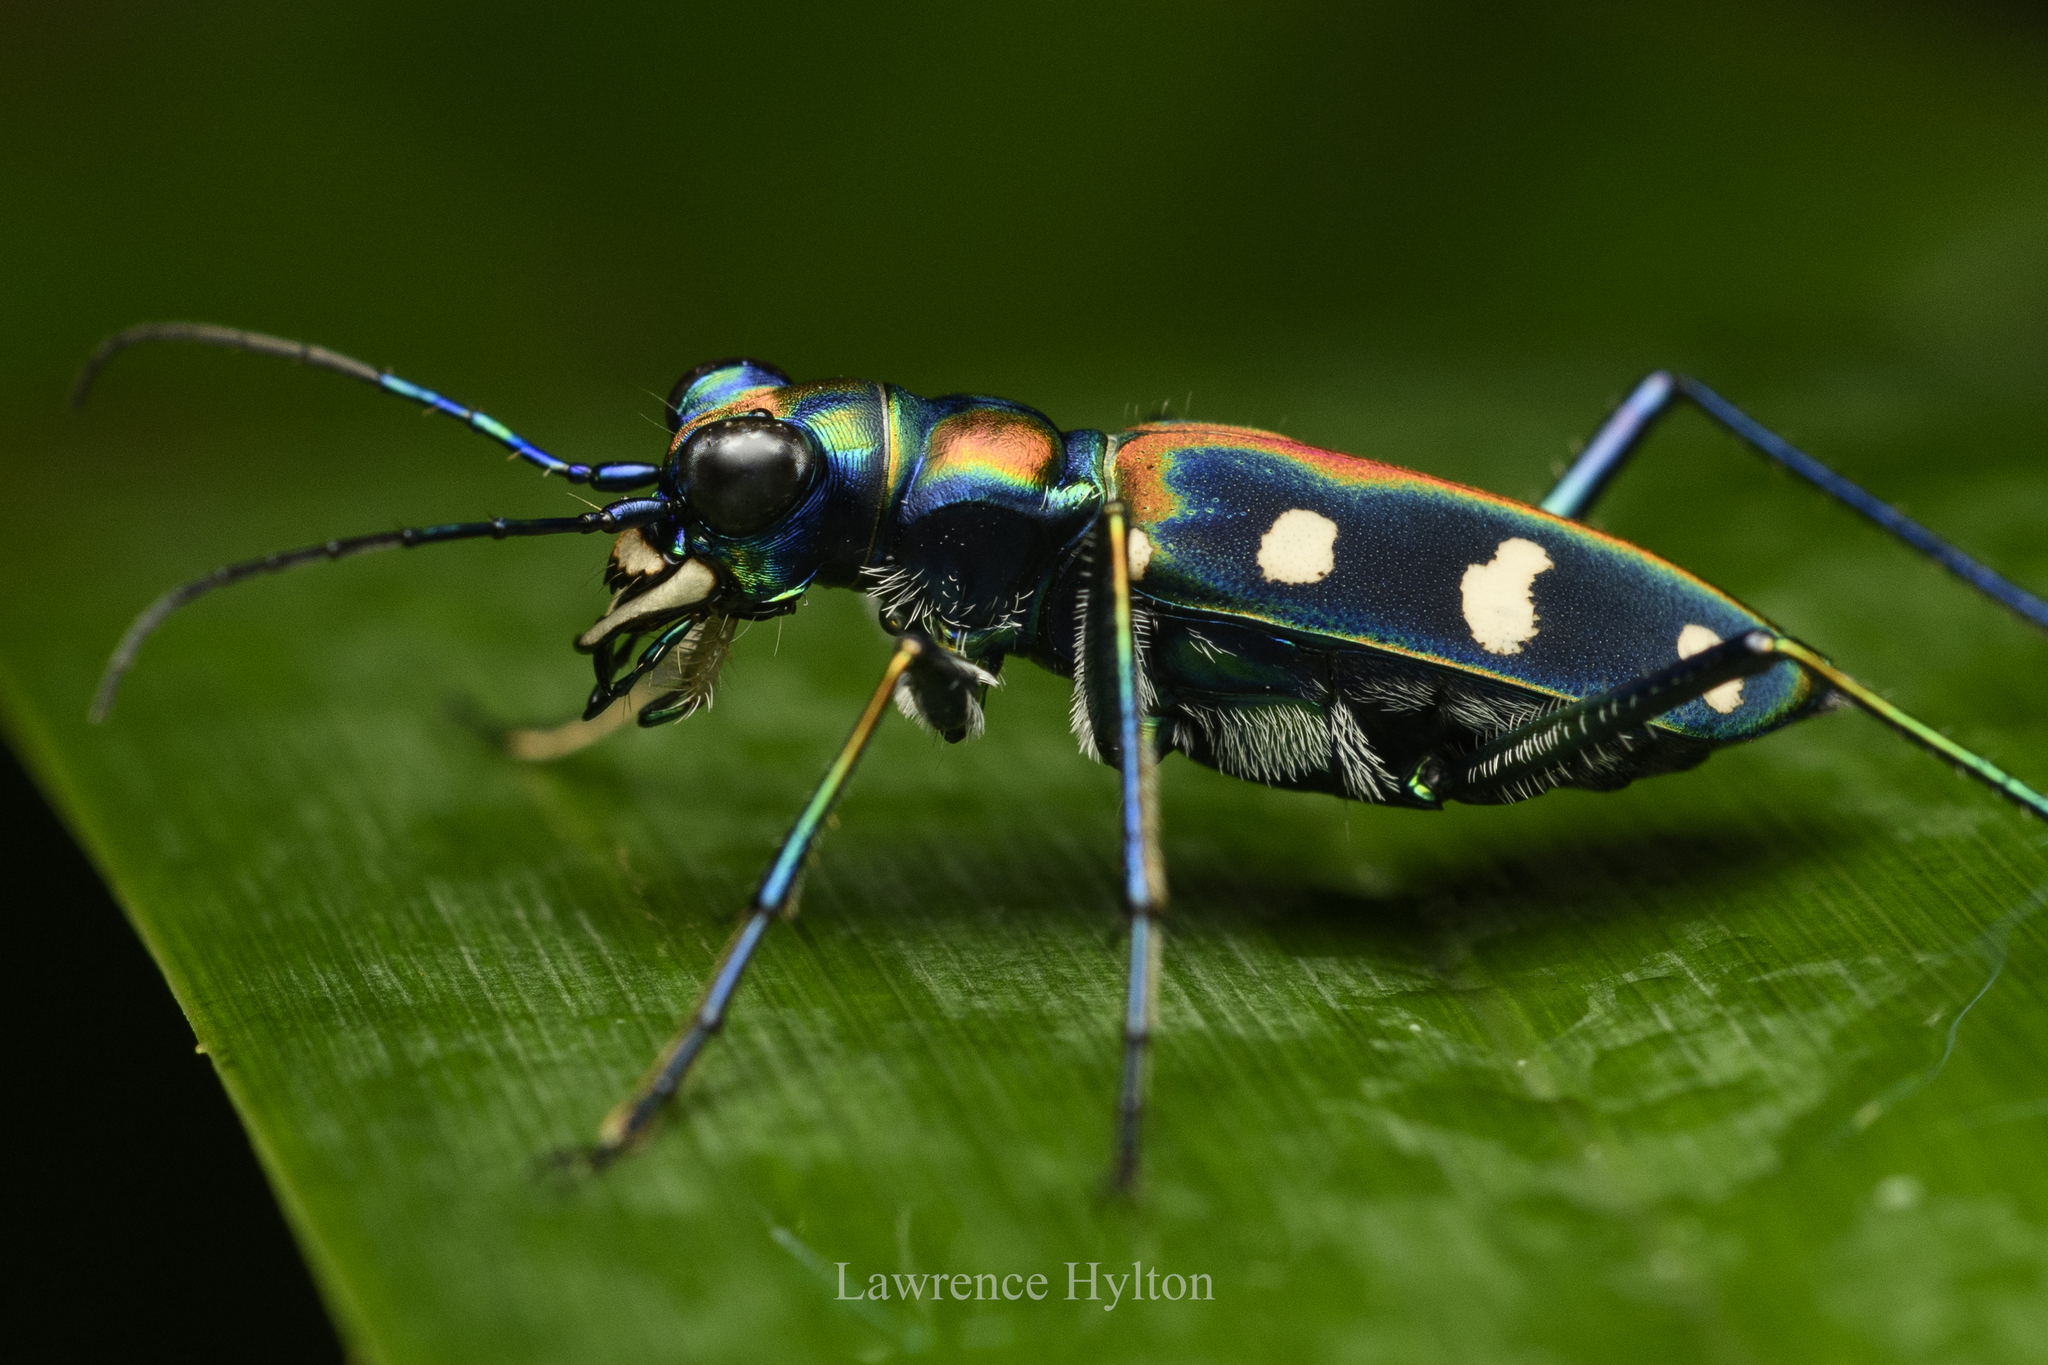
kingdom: Animalia
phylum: Arthropoda
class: Insecta
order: Coleoptera
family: Carabidae
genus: Cicindela
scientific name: Cicindela juxtata
